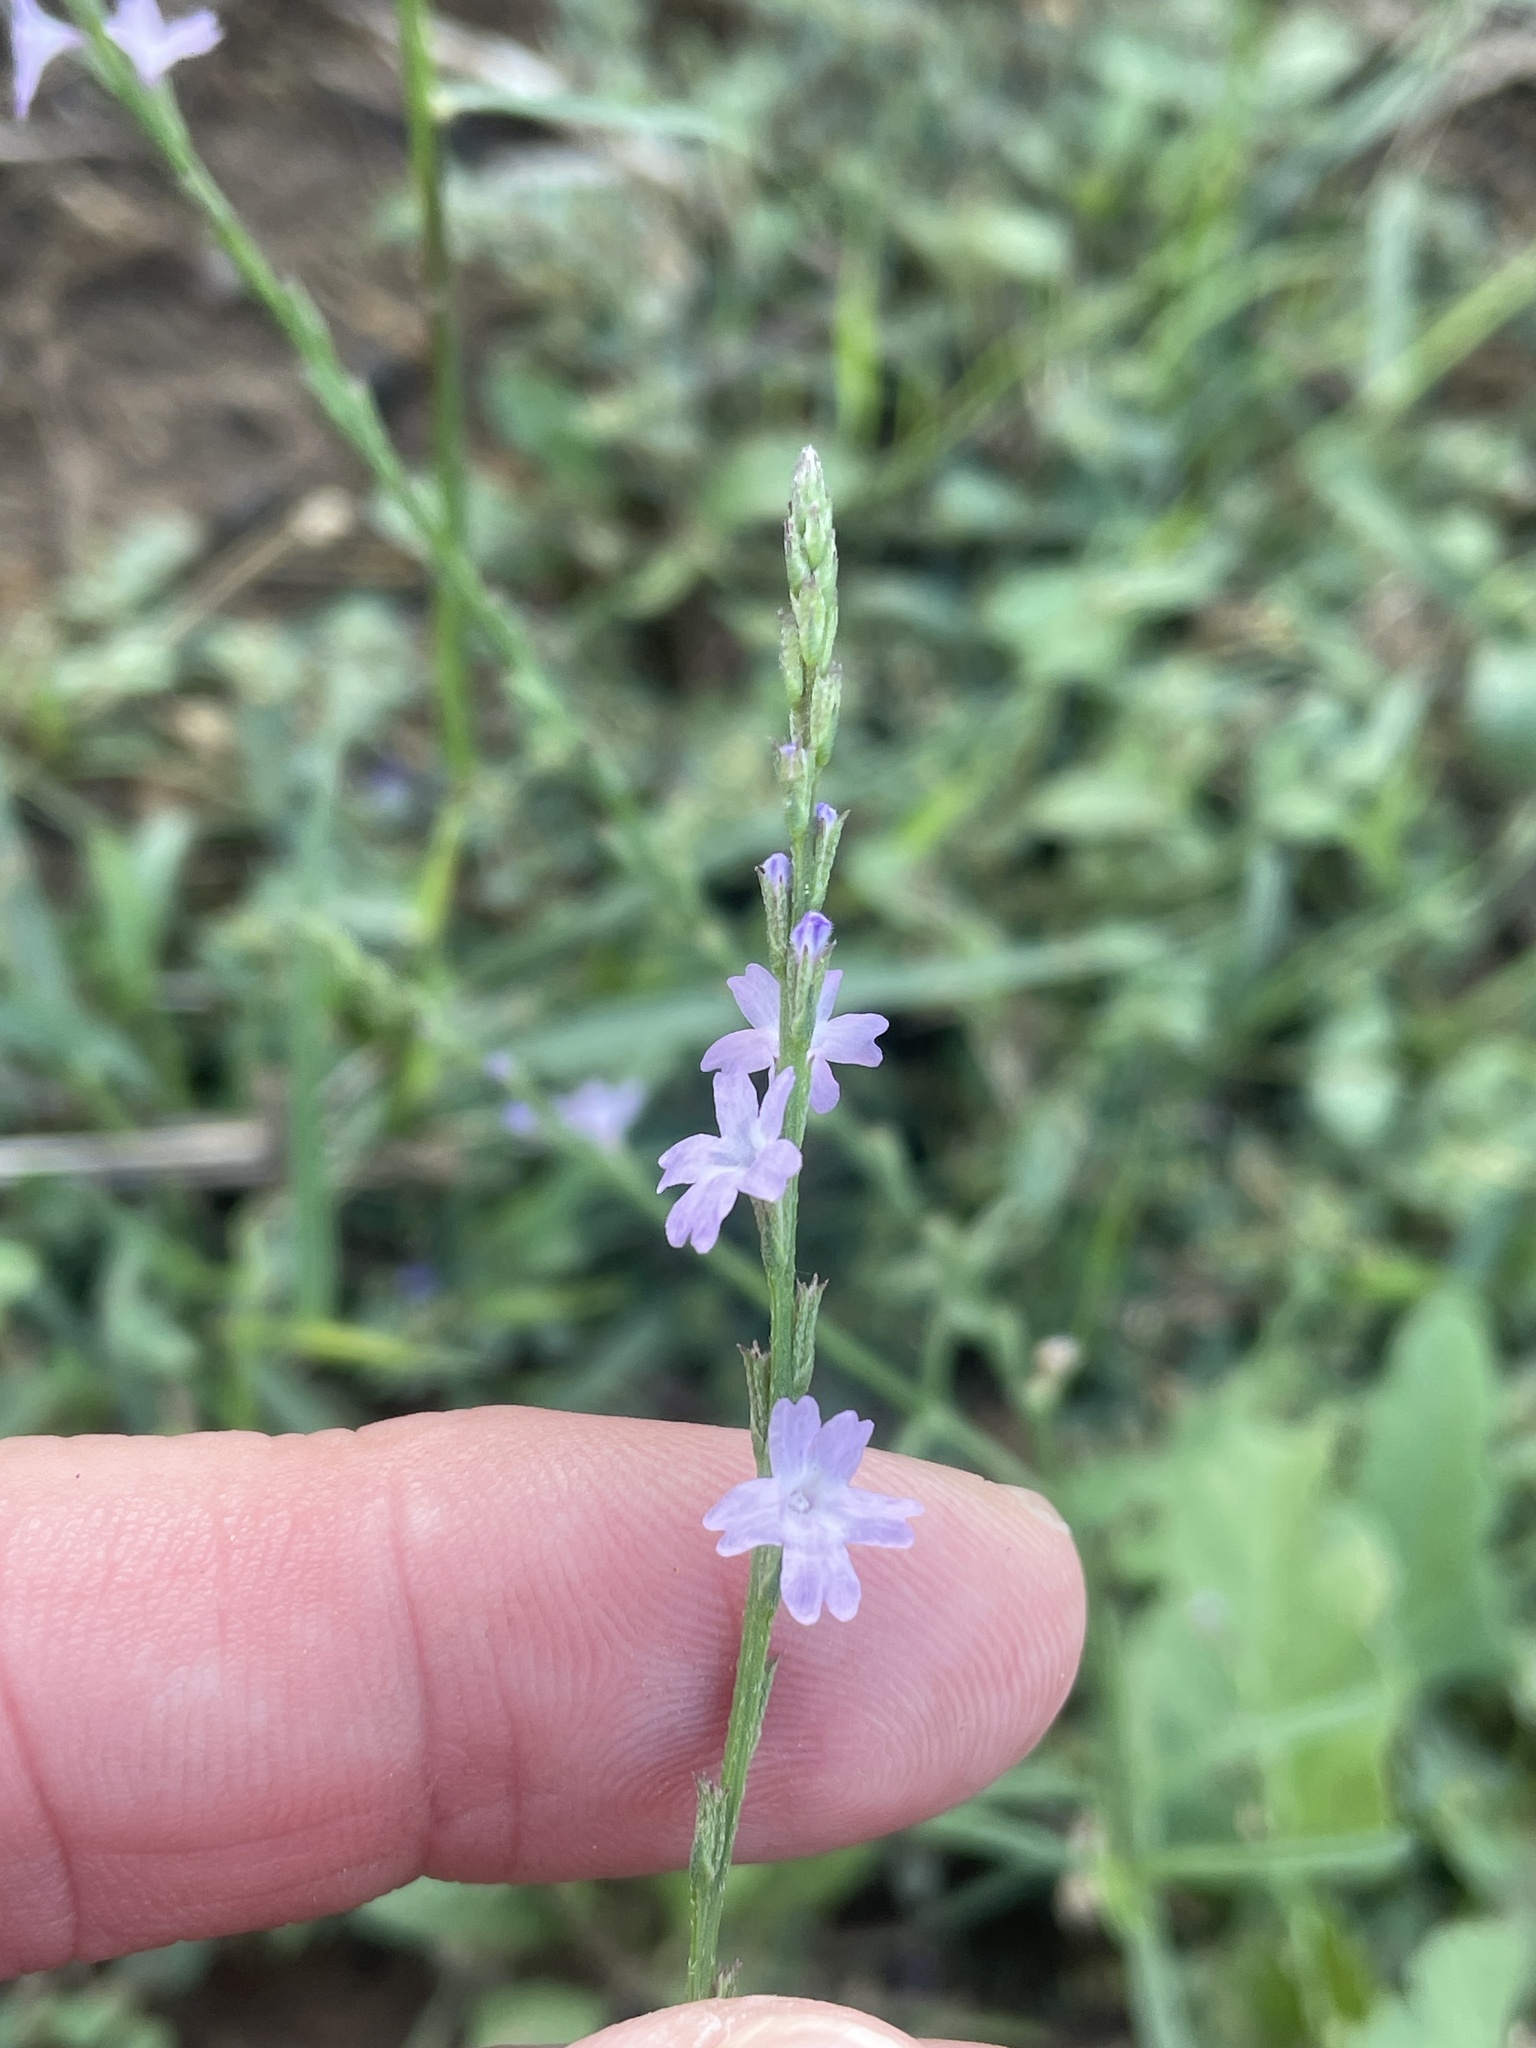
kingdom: Plantae
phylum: Tracheophyta
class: Magnoliopsida
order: Lamiales
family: Verbenaceae
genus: Verbena
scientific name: Verbena halei
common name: Texas vervain
